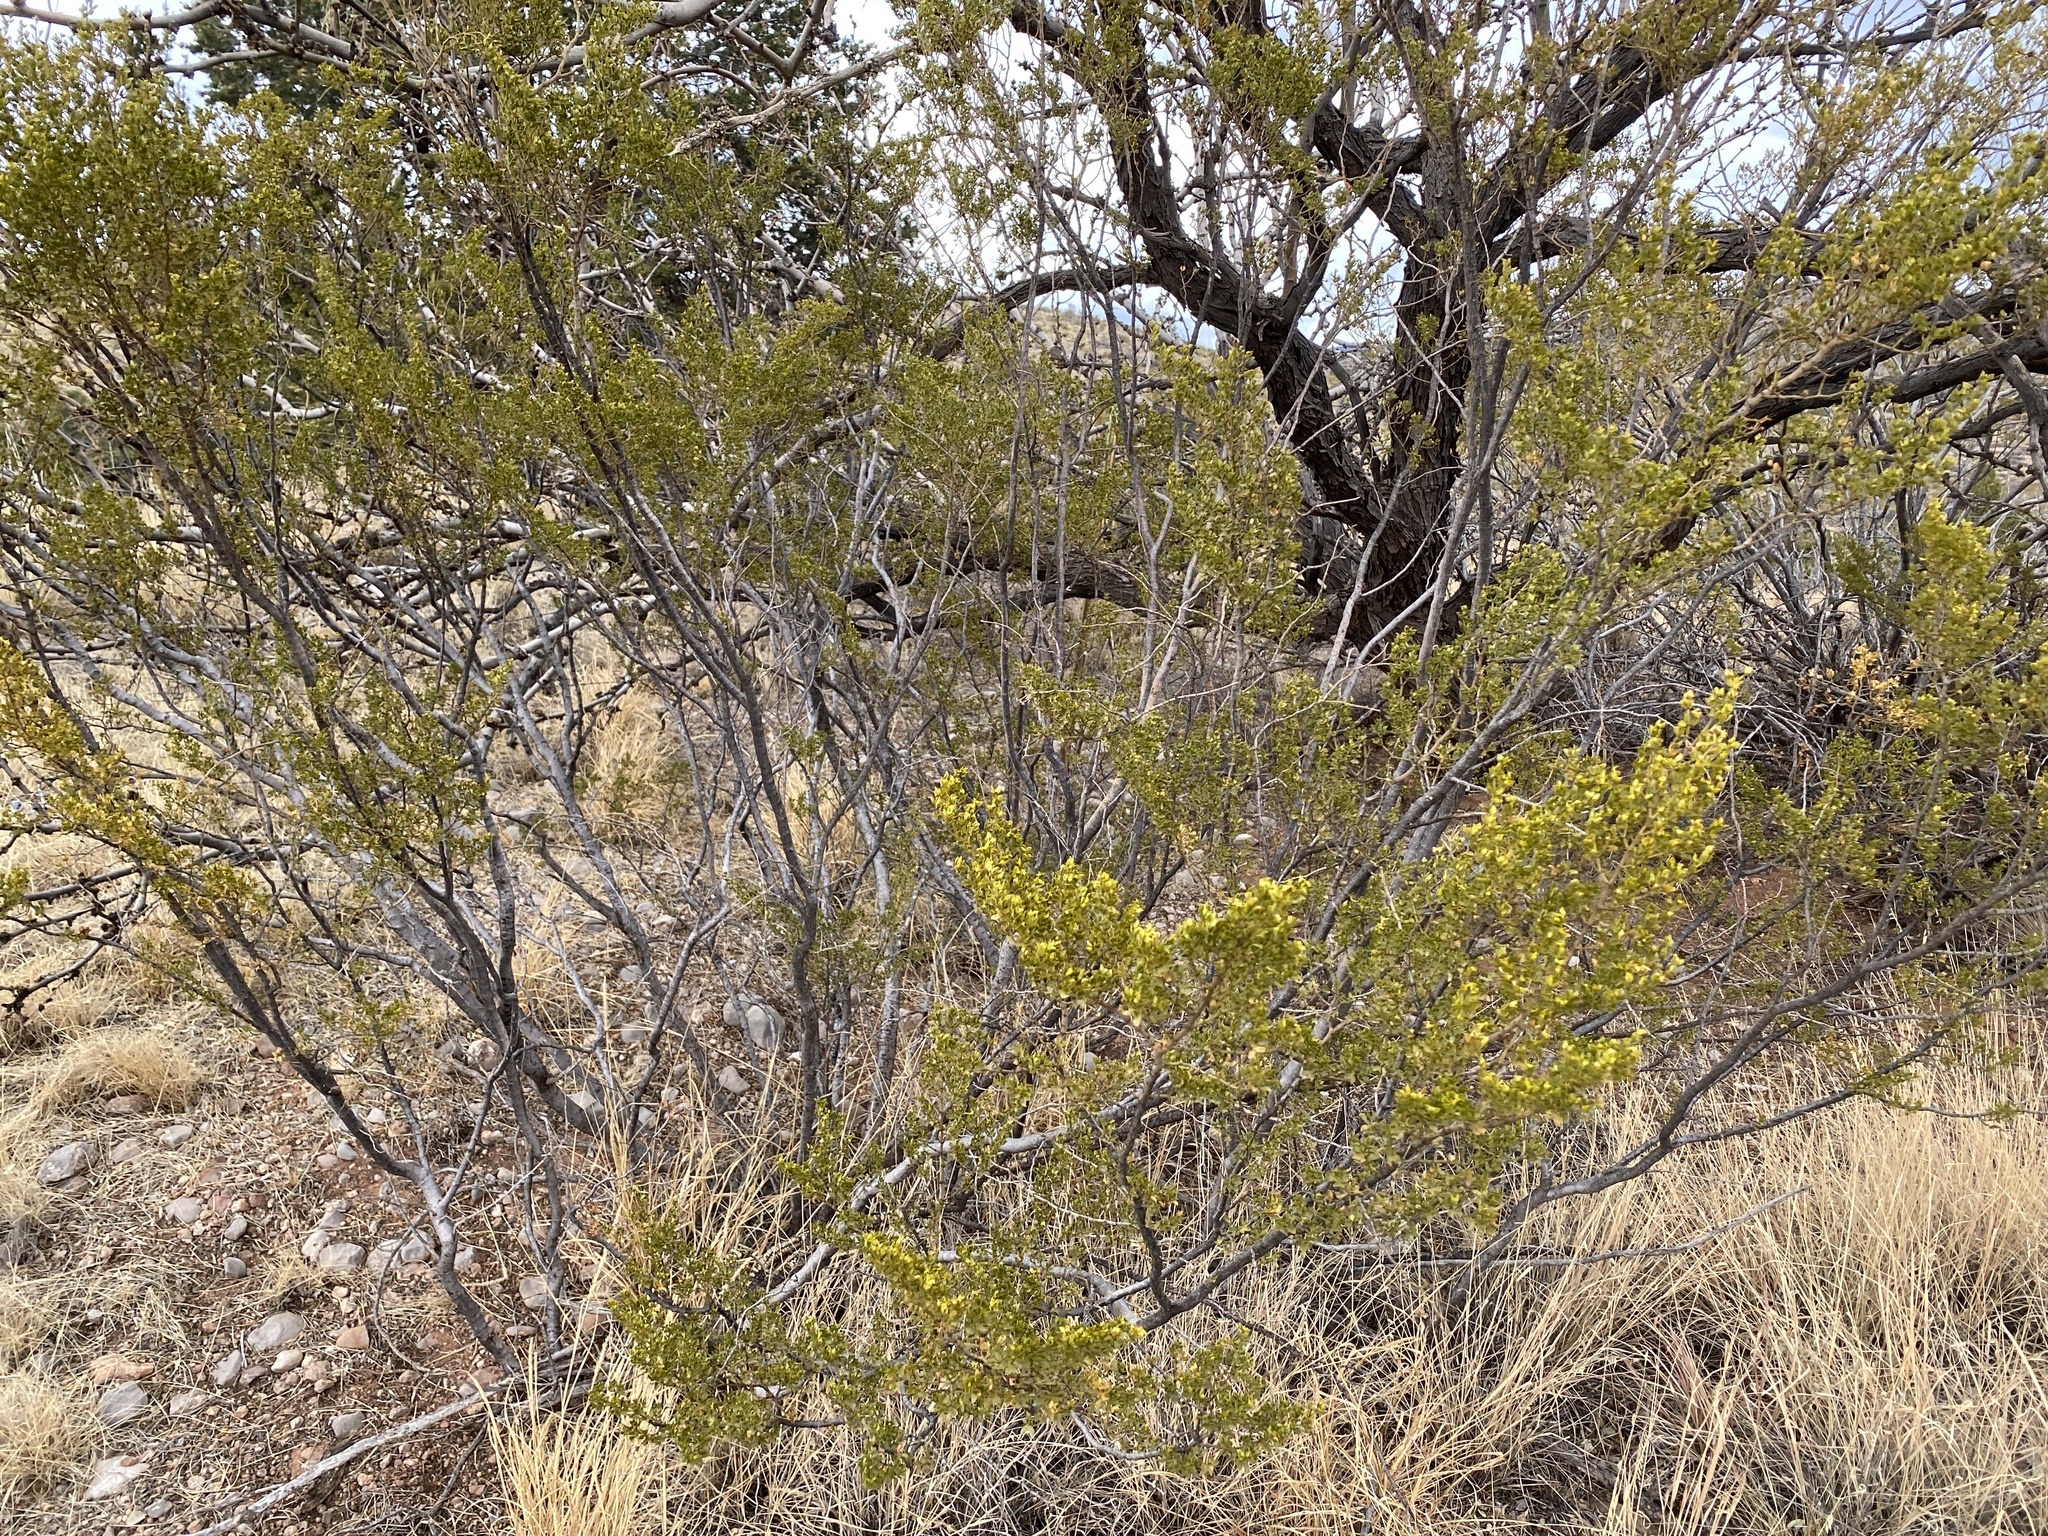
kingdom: Plantae
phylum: Tracheophyta
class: Magnoliopsida
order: Zygophyllales
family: Zygophyllaceae
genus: Larrea
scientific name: Larrea tridentata
